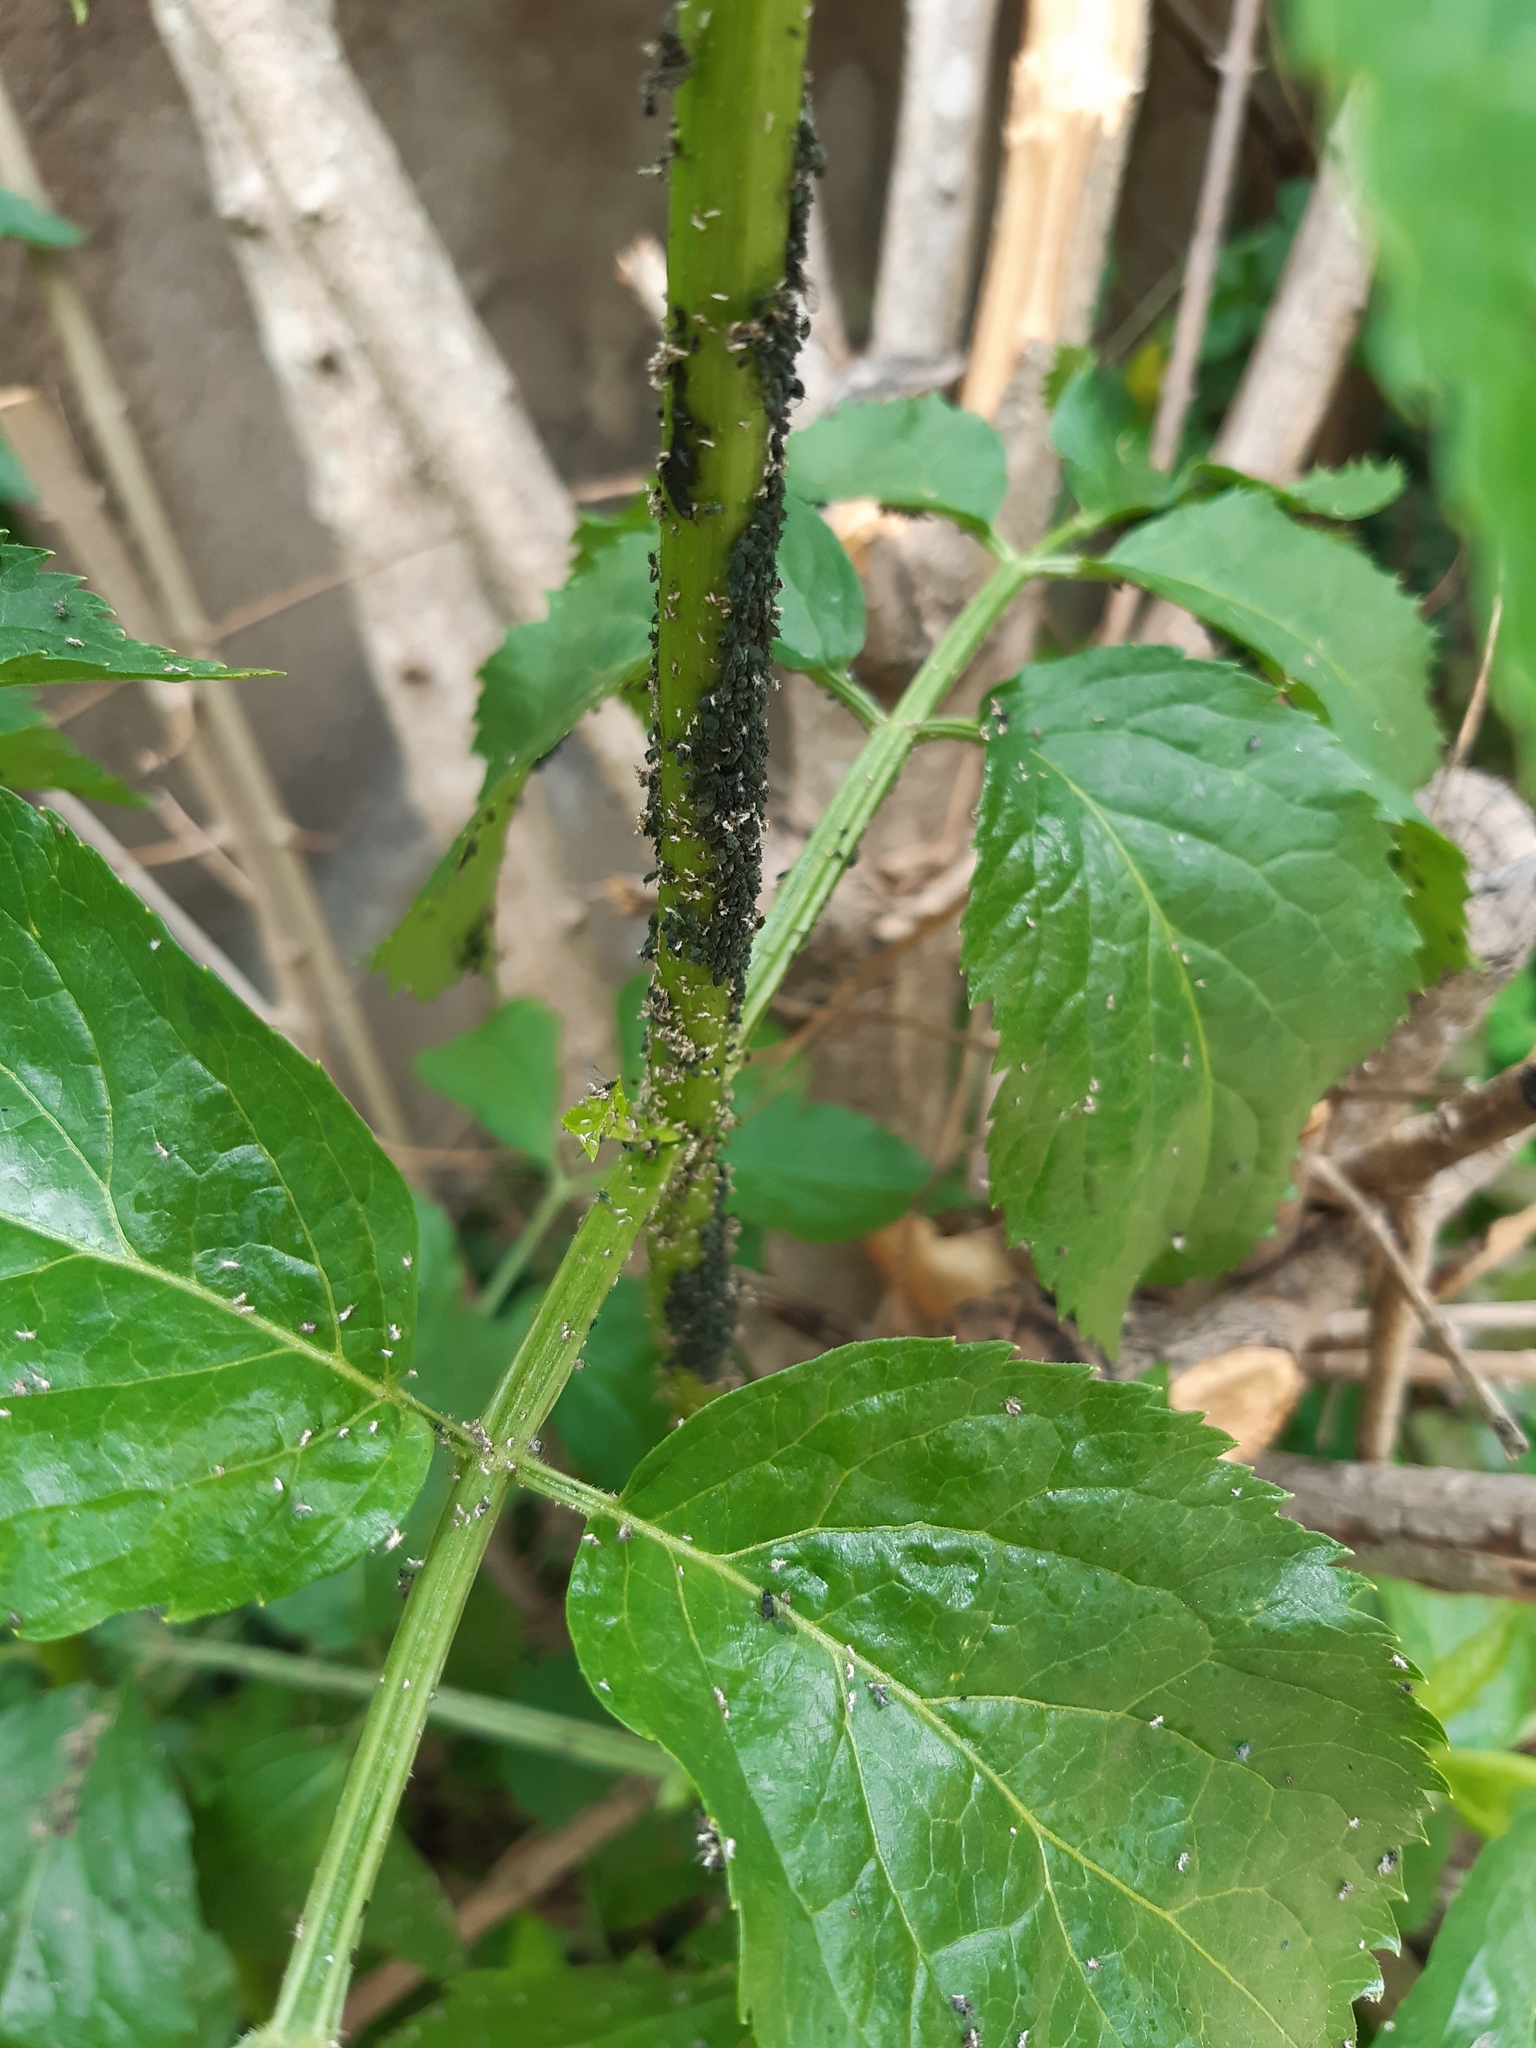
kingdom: Animalia
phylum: Arthropoda
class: Insecta
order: Hemiptera
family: Aphididae
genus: Aphis
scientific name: Aphis sambuci
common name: Elder aphid
